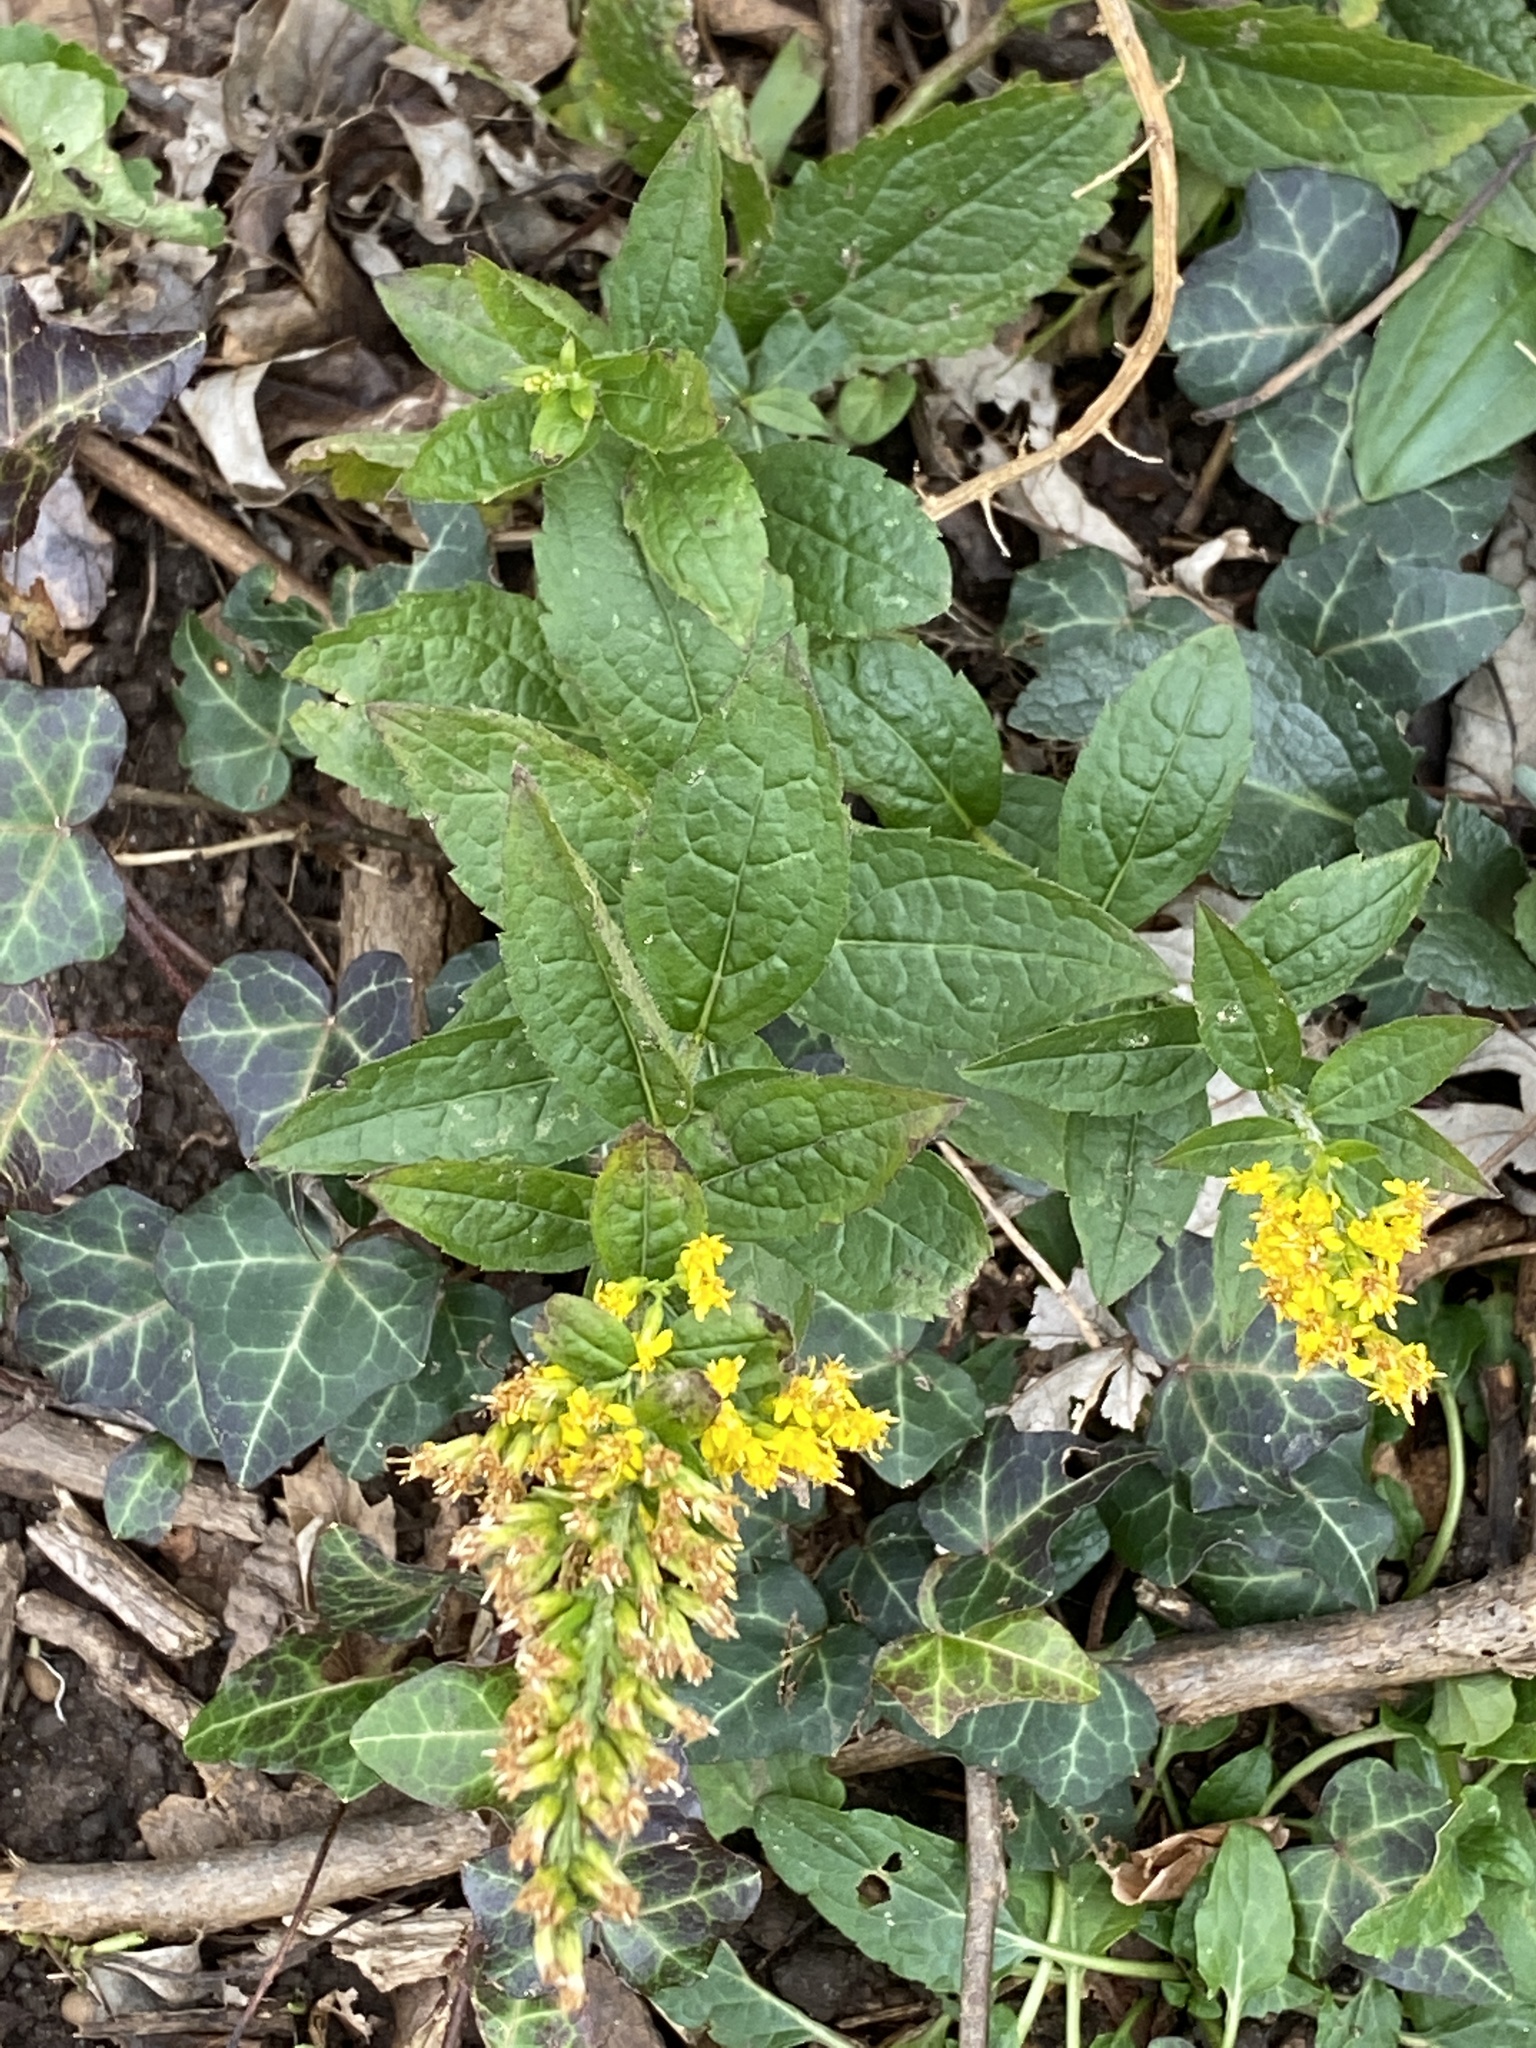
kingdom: Plantae
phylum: Tracheophyta
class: Magnoliopsida
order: Asterales
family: Asteraceae
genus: Solidago
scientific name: Solidago rugosa
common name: Rough-stemmed goldenrod
